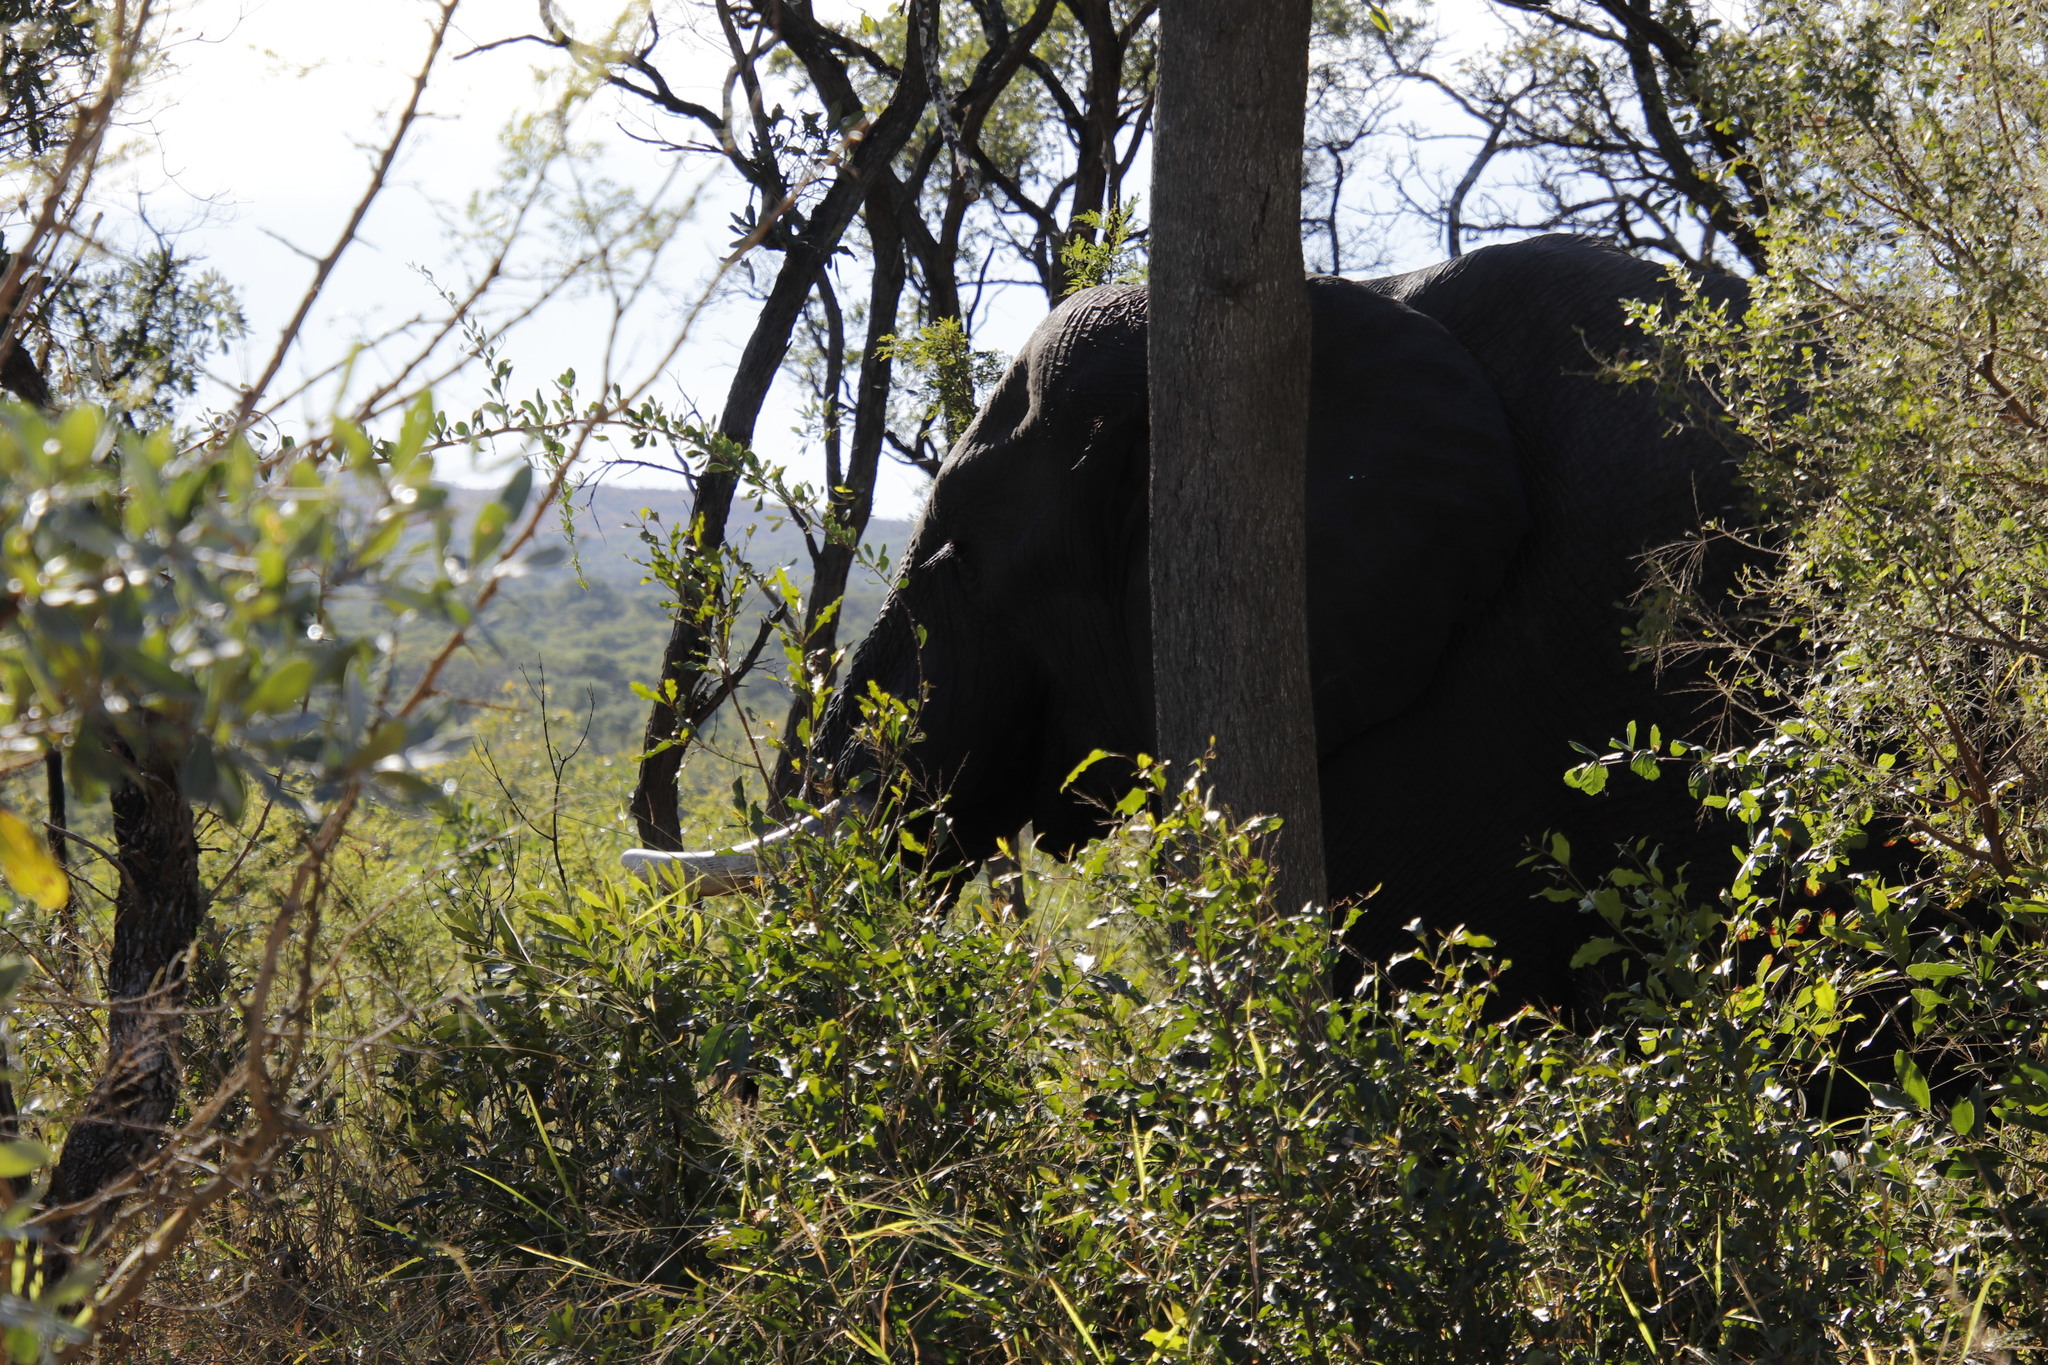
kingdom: Animalia
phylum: Chordata
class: Mammalia
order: Proboscidea
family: Elephantidae
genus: Loxodonta
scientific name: Loxodonta africana
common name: African elephant
